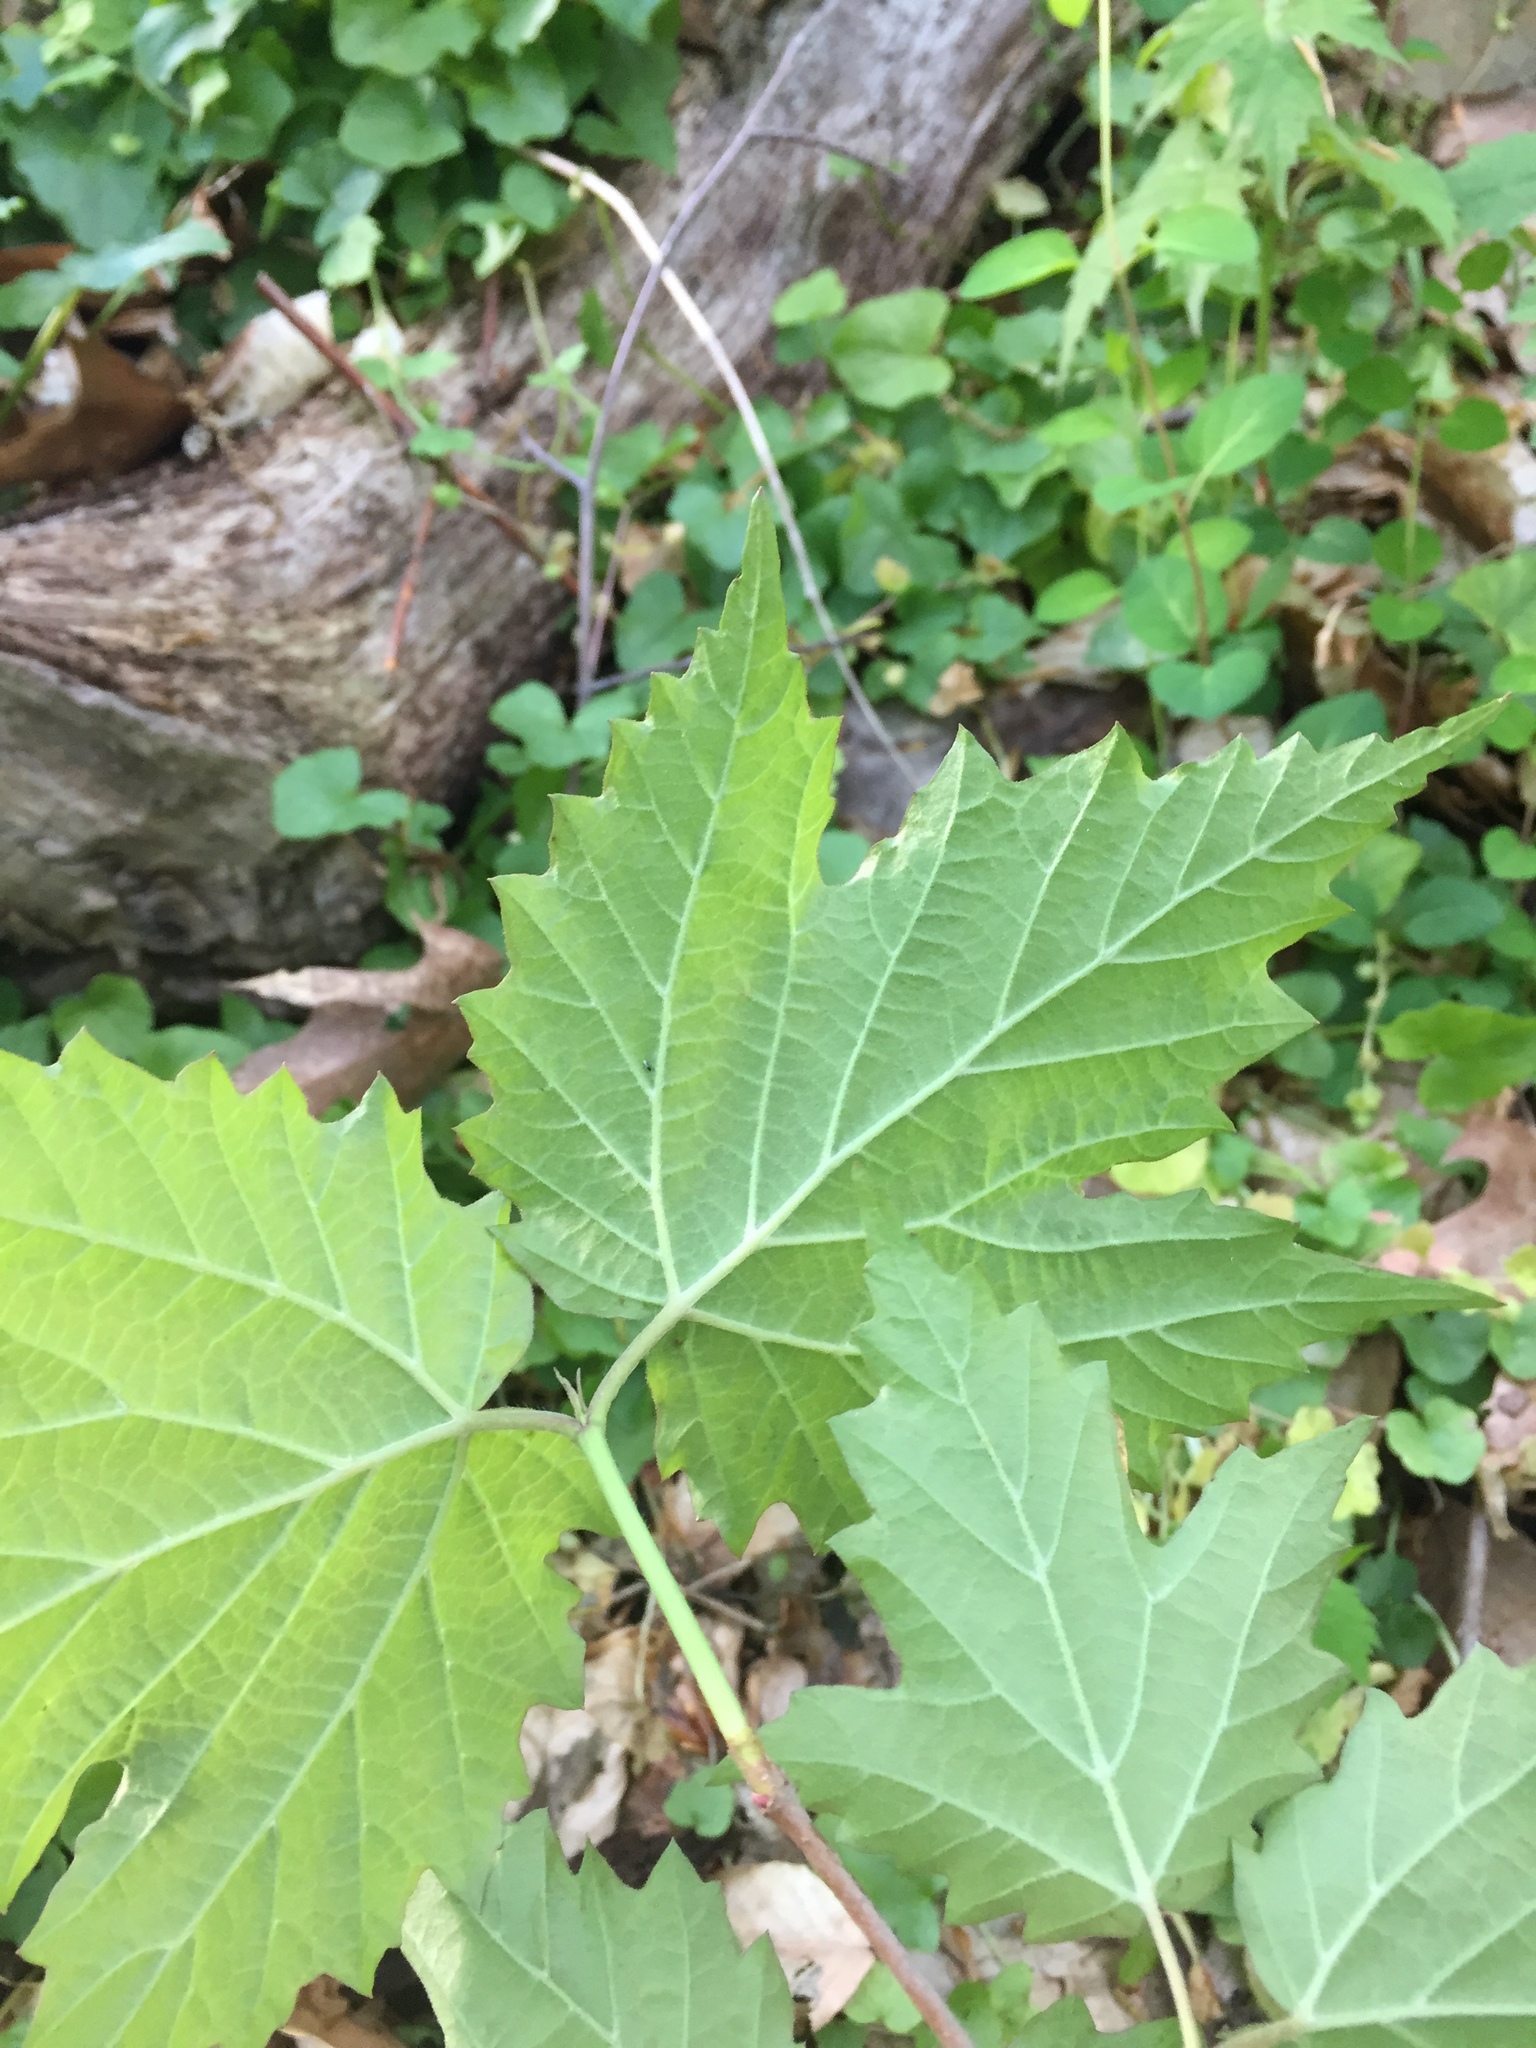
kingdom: Plantae
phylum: Tracheophyta
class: Magnoliopsida
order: Dipsacales
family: Viburnaceae
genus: Viburnum
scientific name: Viburnum acerifolium
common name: Dockmackie
